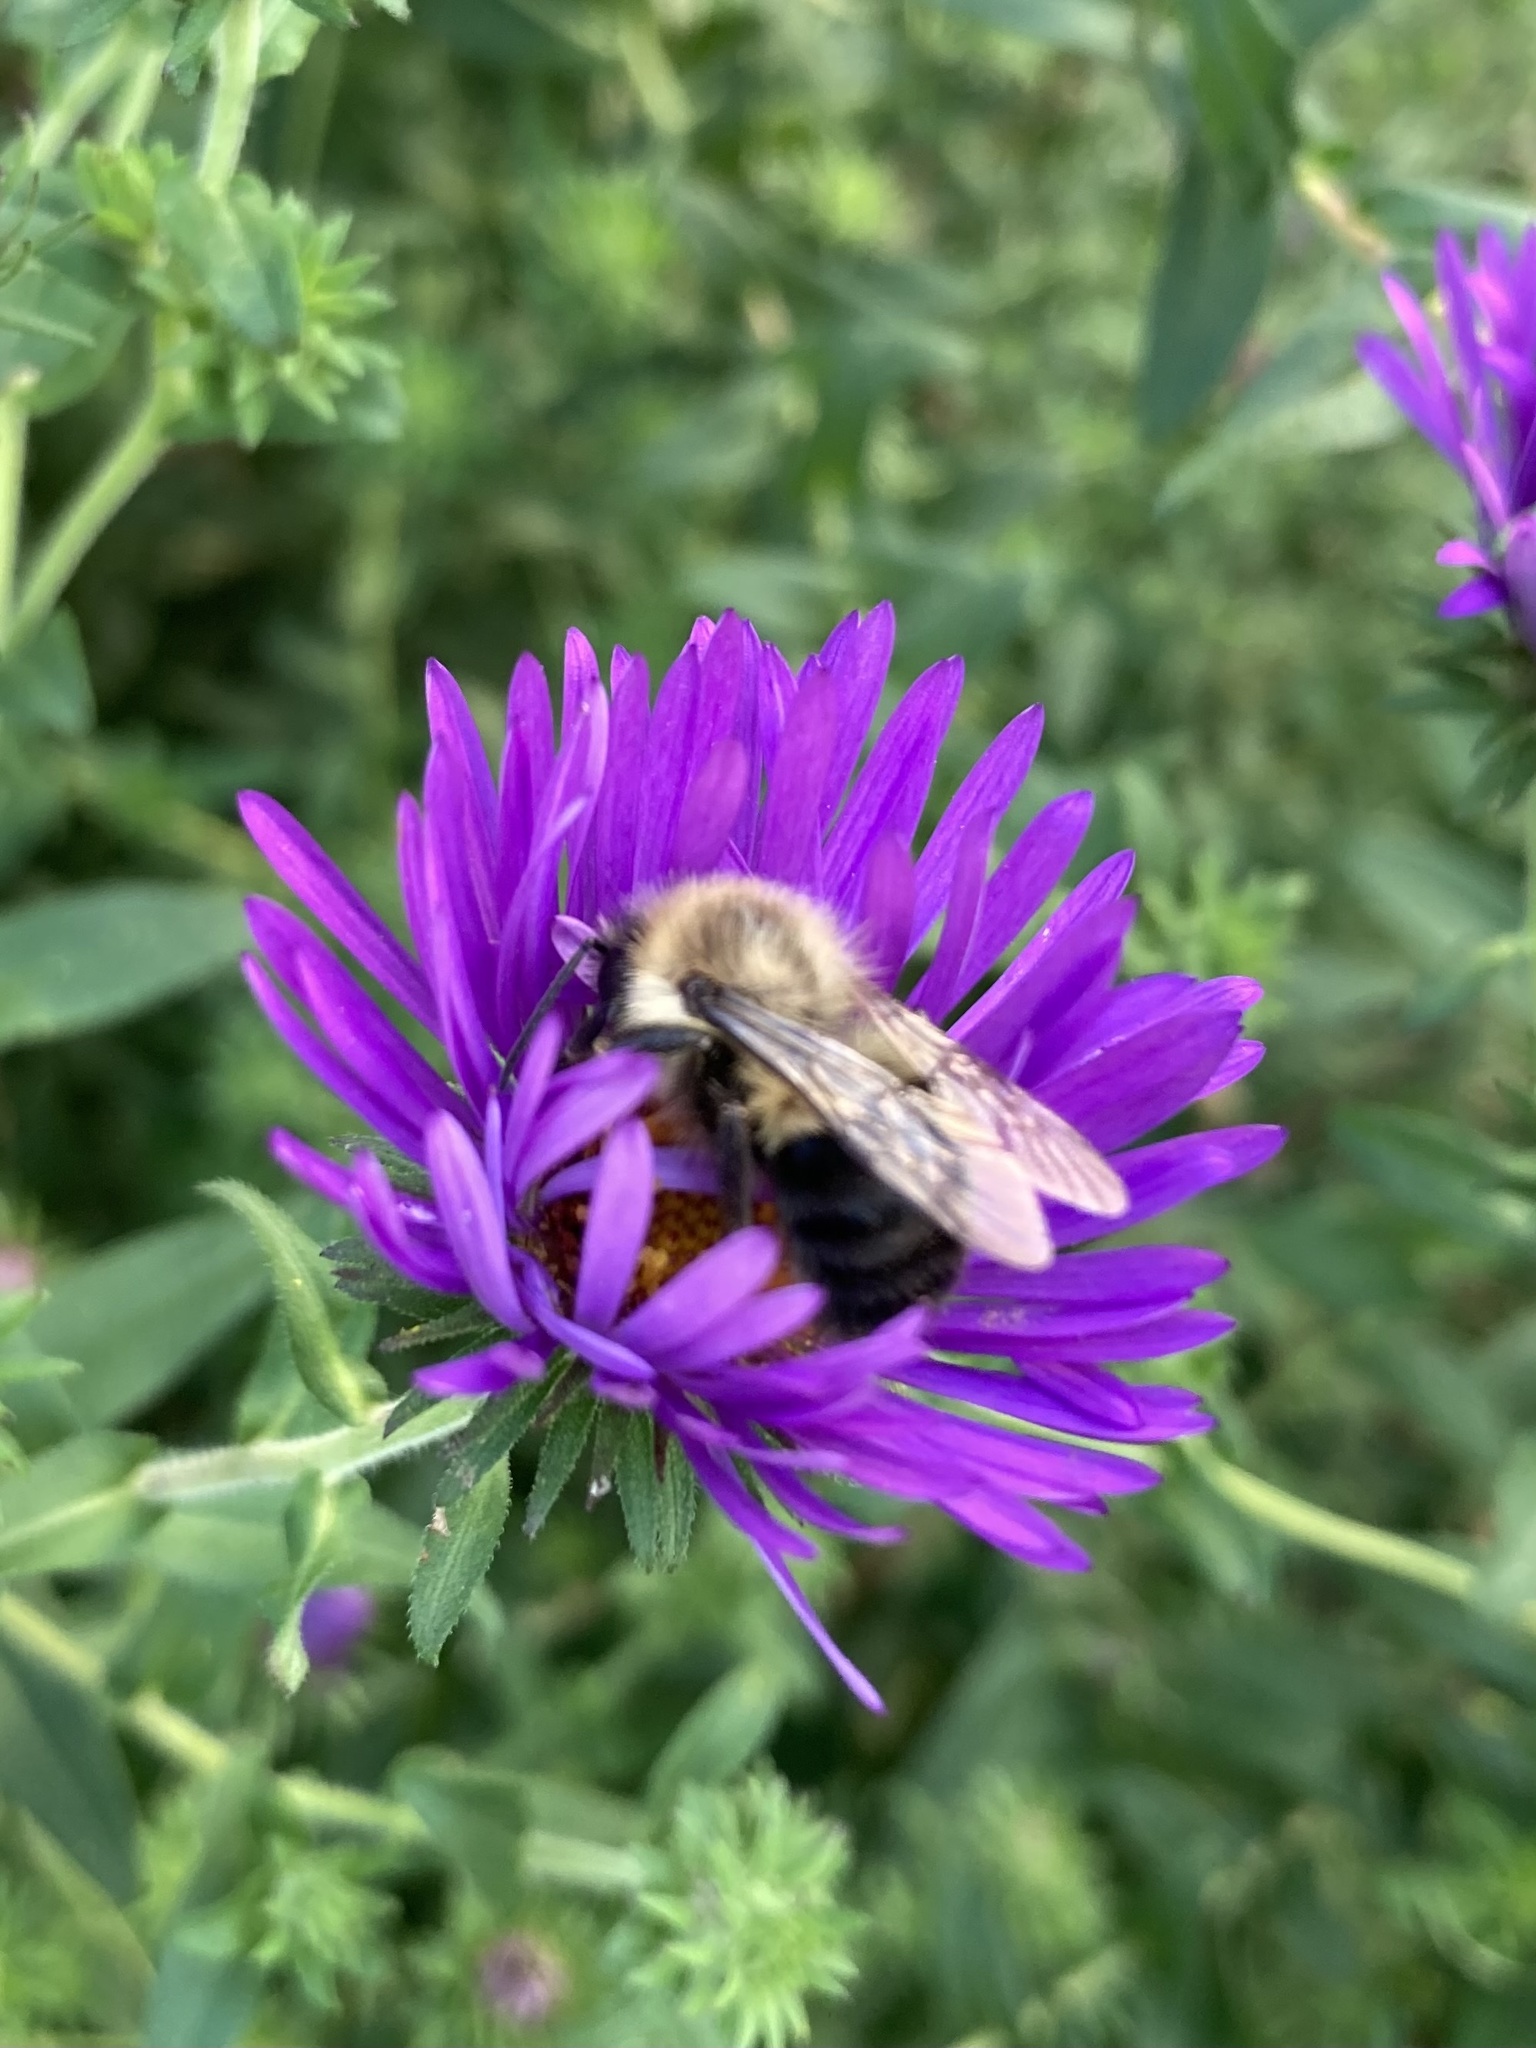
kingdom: Animalia
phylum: Arthropoda
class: Insecta
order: Hymenoptera
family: Apidae
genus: Bombus
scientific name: Bombus impatiens
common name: Common eastern bumble bee
